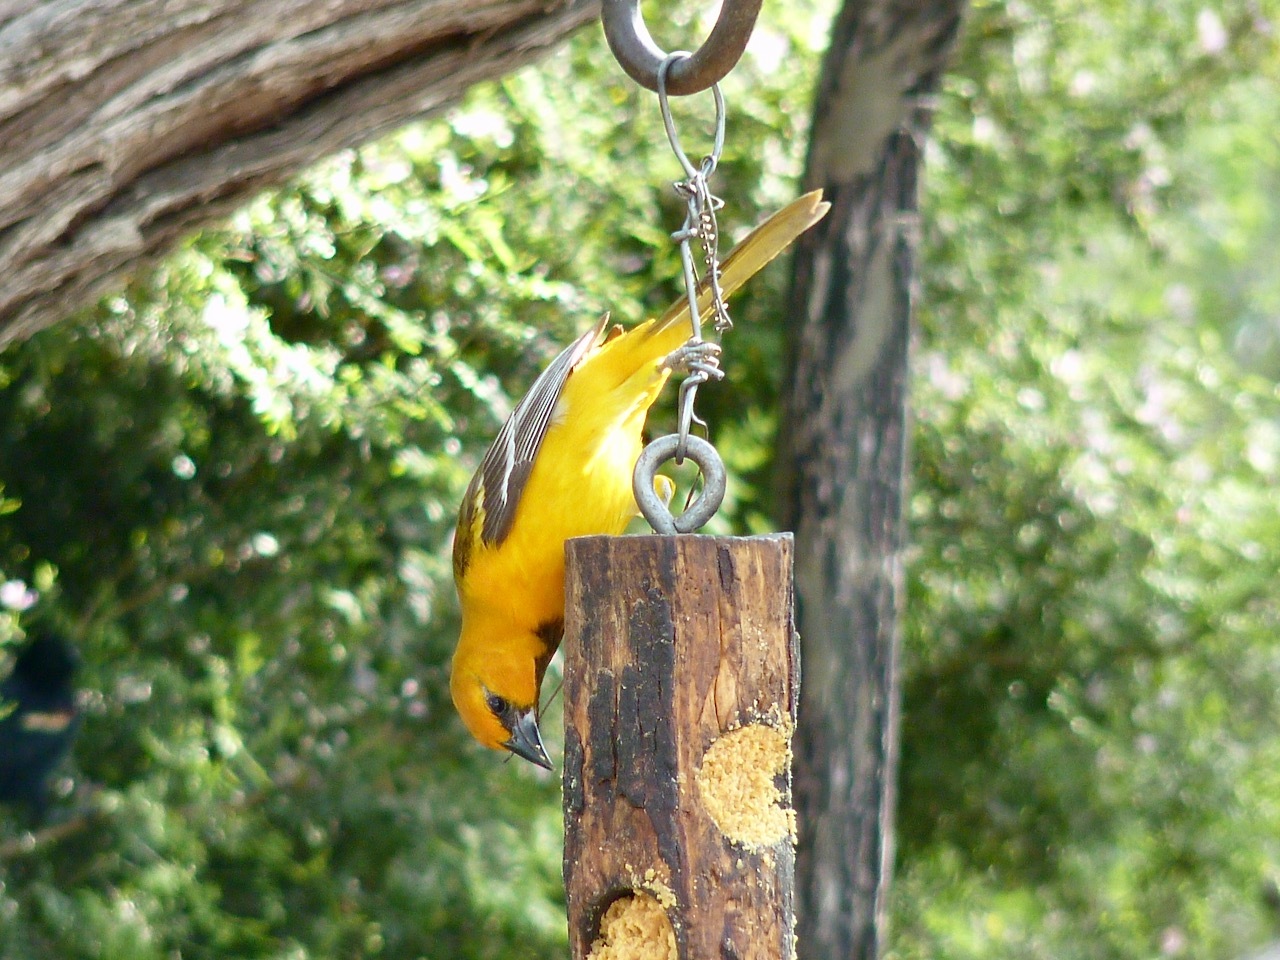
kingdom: Animalia
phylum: Chordata
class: Aves
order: Passeriformes
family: Icteridae
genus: Icterus
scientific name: Icterus gularis
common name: Altamira oriole
